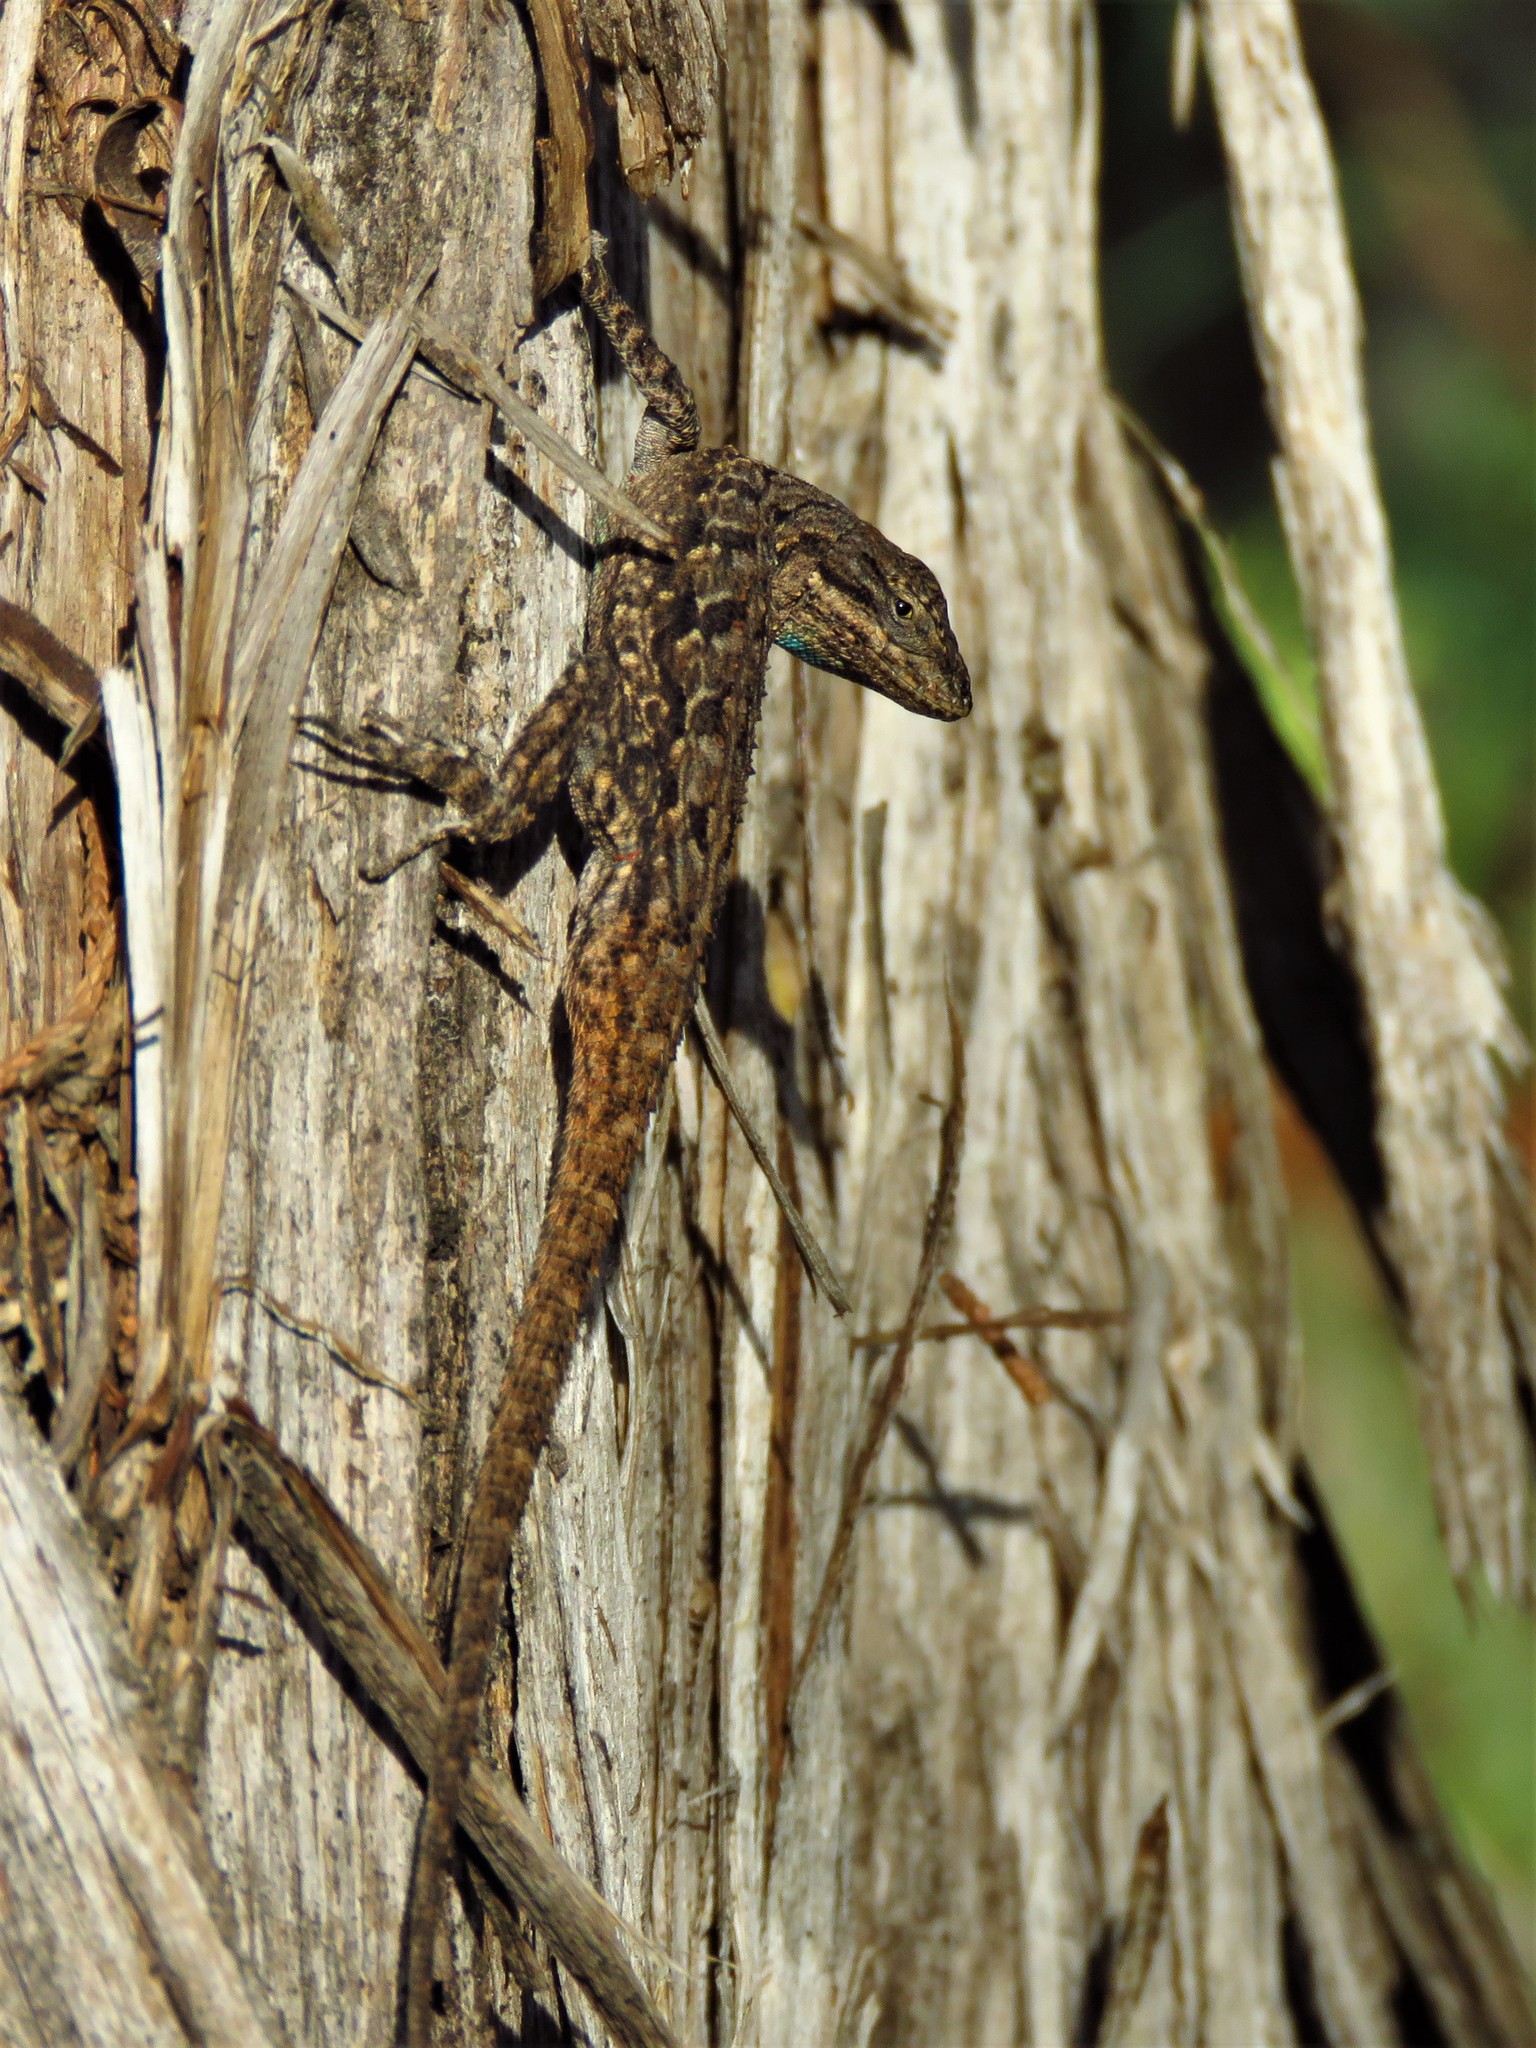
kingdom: Animalia
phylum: Chordata
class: Squamata
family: Phrynosomatidae
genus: Urosaurus
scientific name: Urosaurus ornatus
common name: Ornate tree lizard
